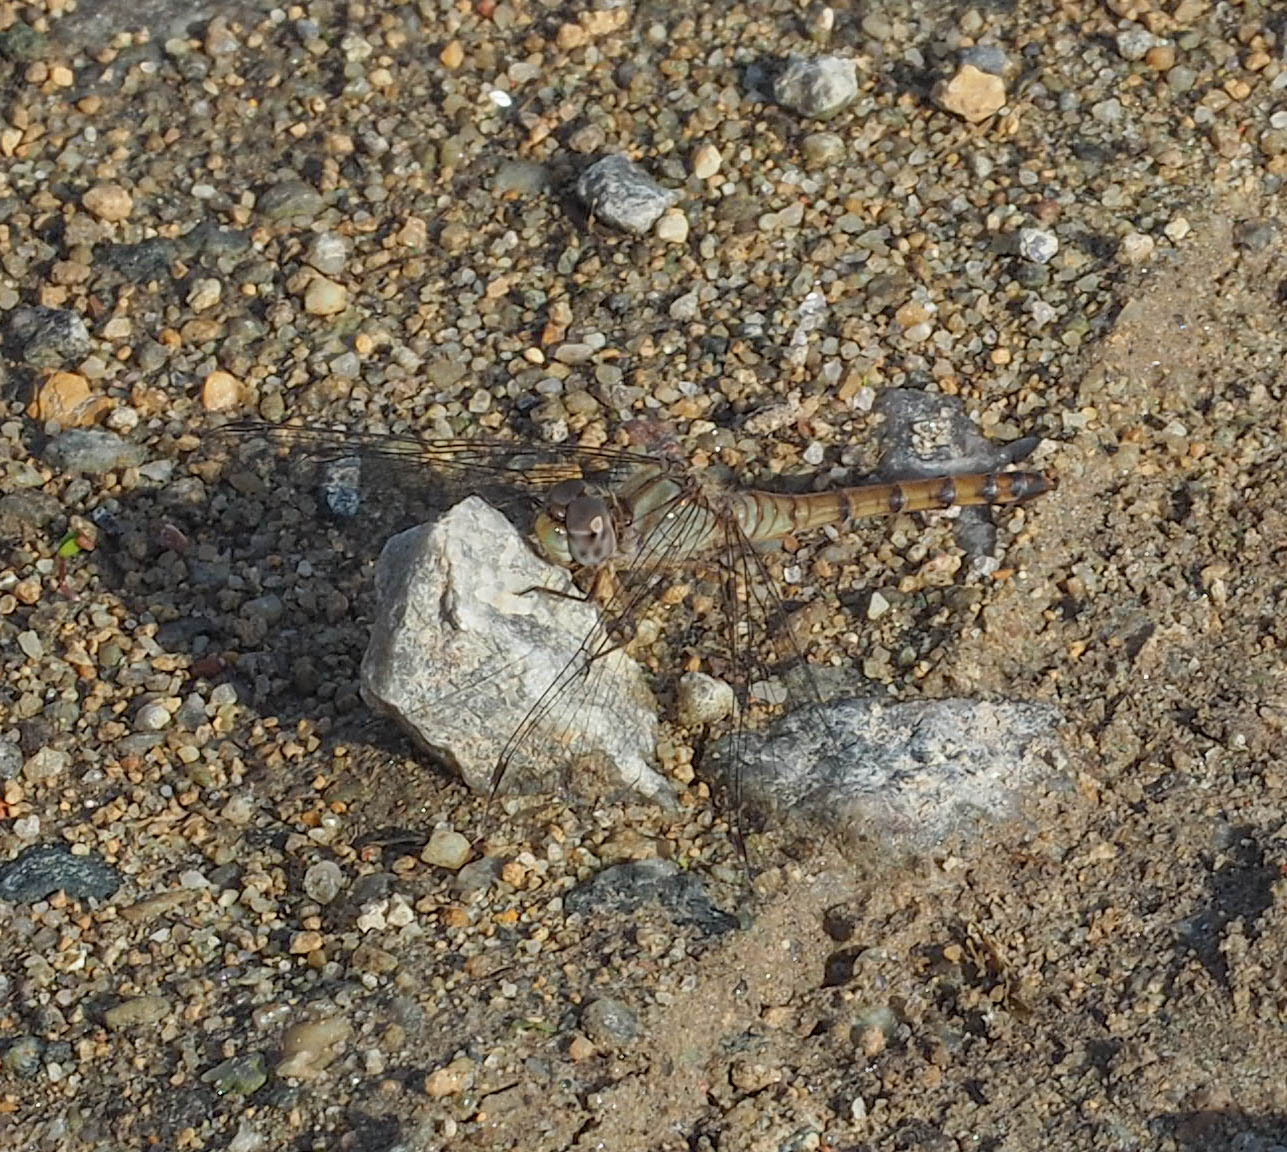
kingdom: Animalia
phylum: Arthropoda
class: Insecta
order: Odonata
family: Libellulidae
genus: Sympetrum
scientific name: Sympetrum ambiguum
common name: Blue-faced meadowhawk
